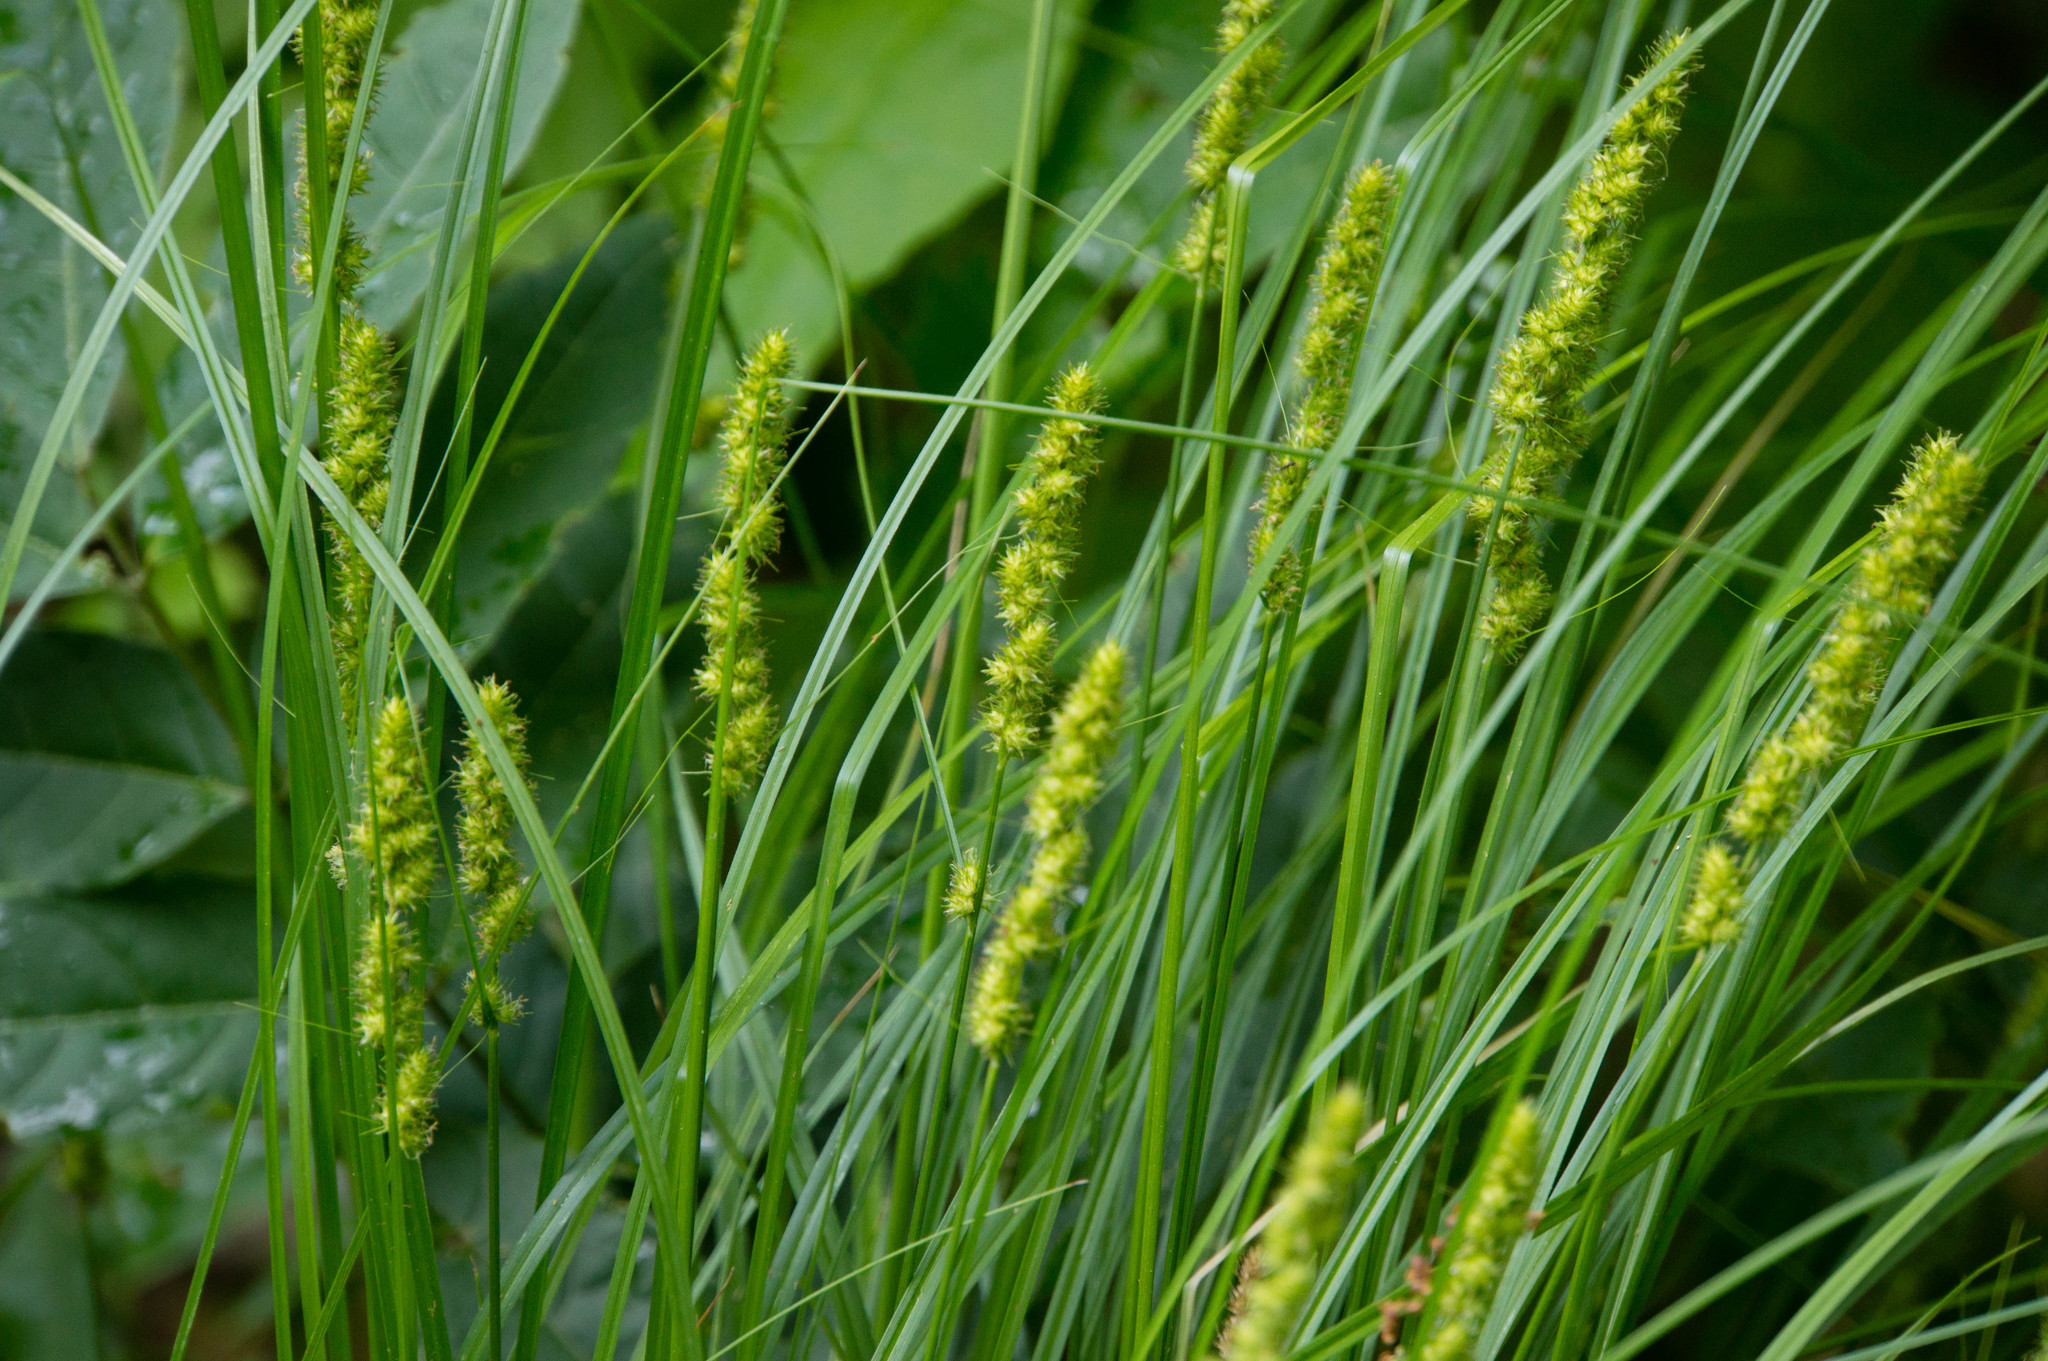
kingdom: Plantae
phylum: Tracheophyta
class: Liliopsida
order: Poales
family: Cyperaceae
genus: Carex
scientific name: Carex vulpinoidea
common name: American fox-sedge
